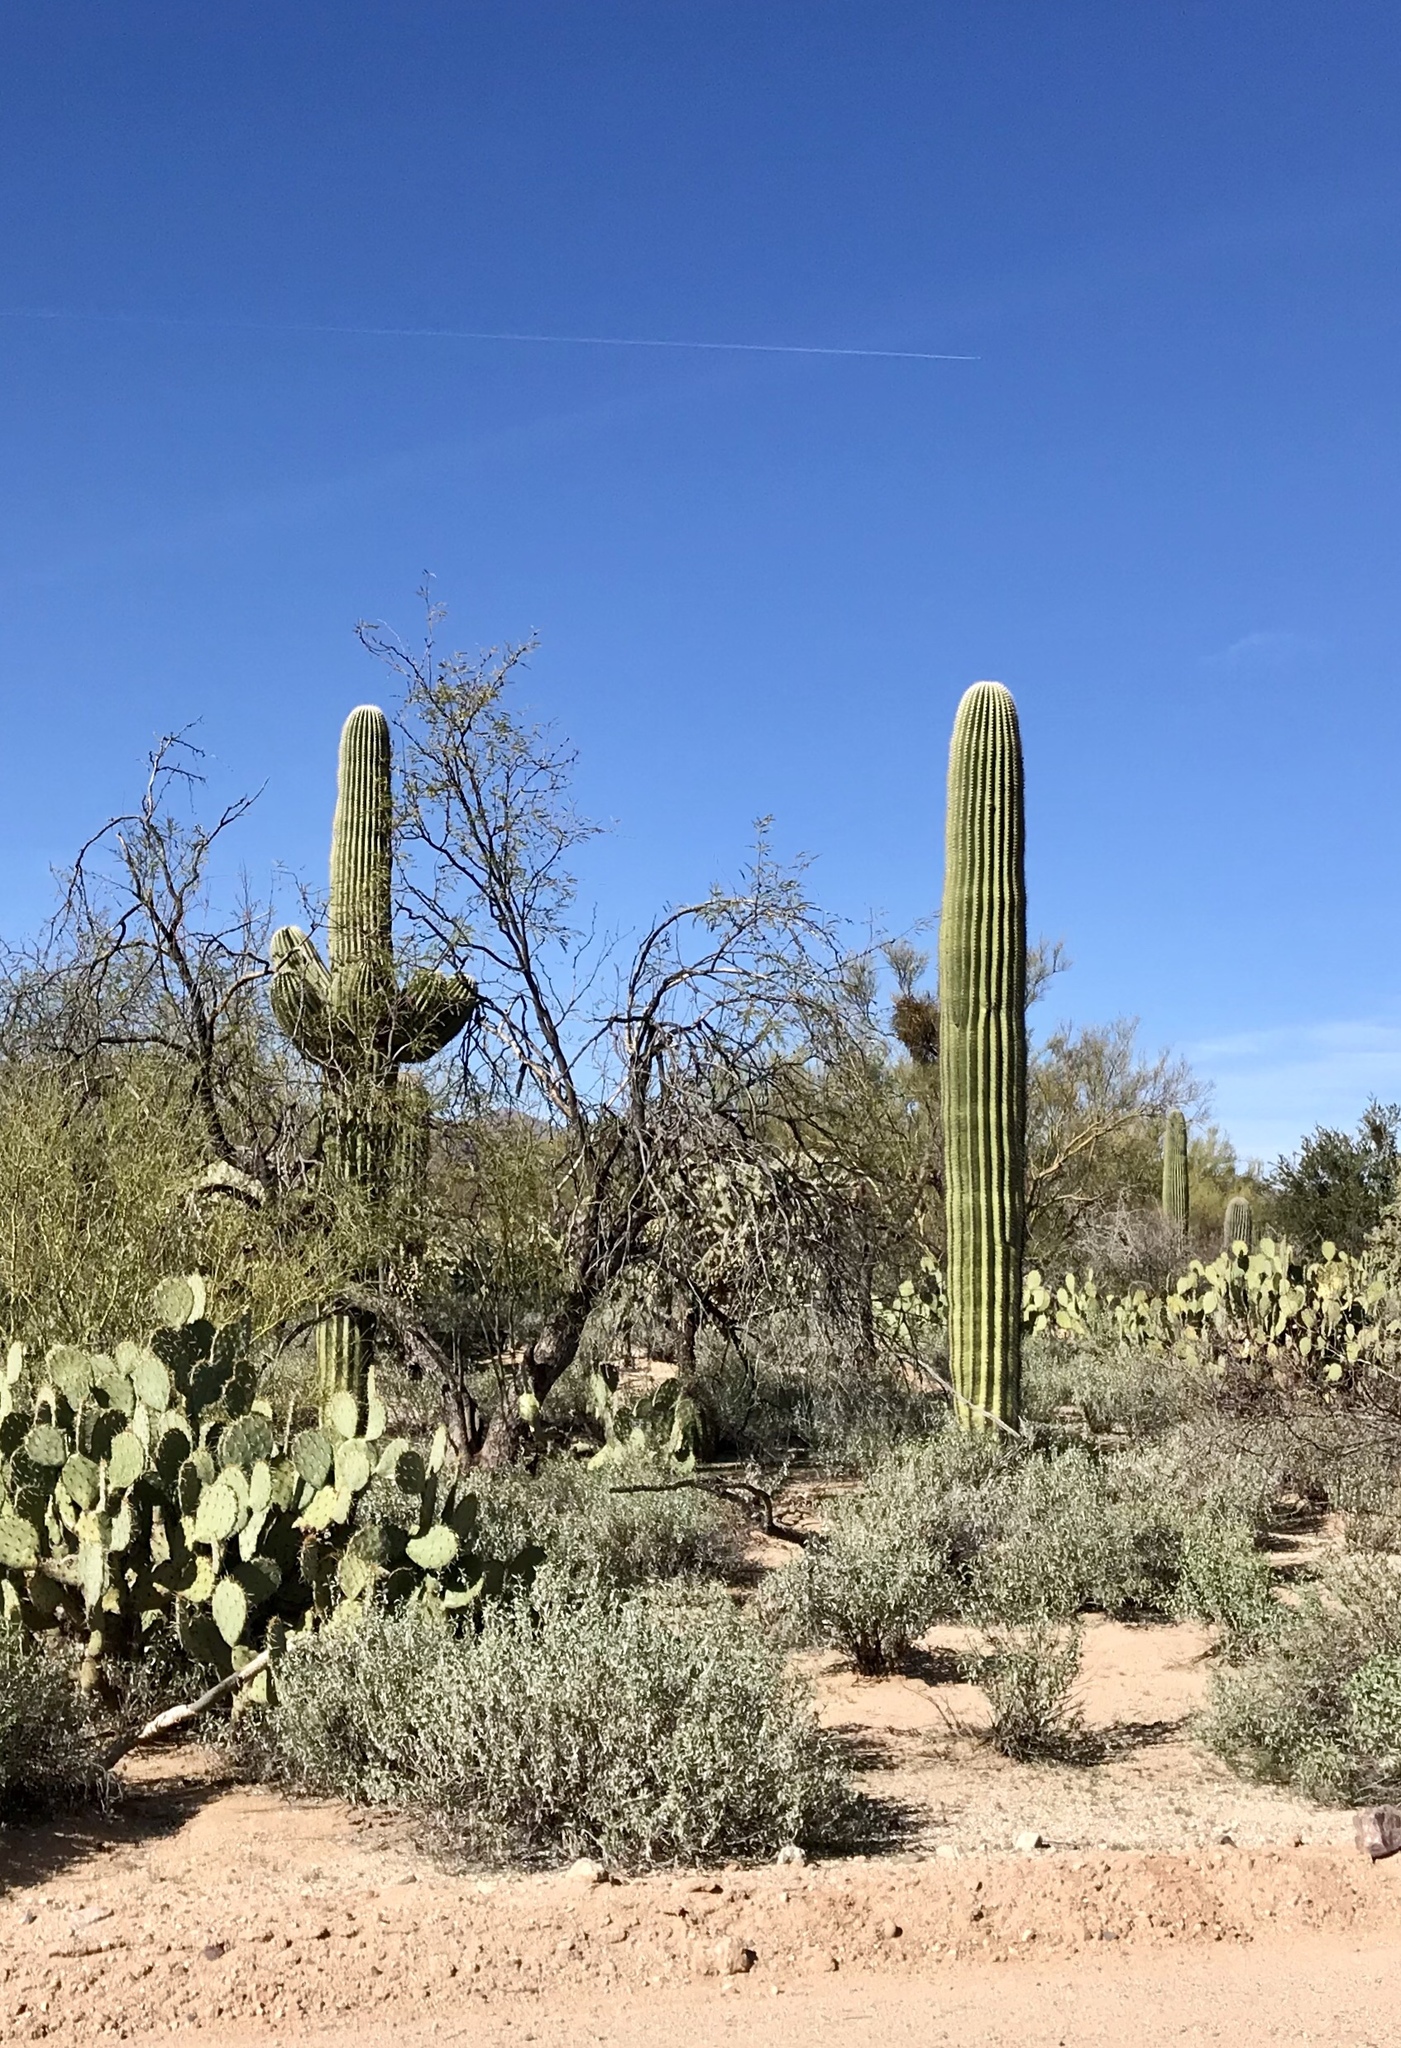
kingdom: Plantae
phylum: Tracheophyta
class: Magnoliopsida
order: Caryophyllales
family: Cactaceae
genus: Carnegiea
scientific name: Carnegiea gigantea
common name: Saguaro
